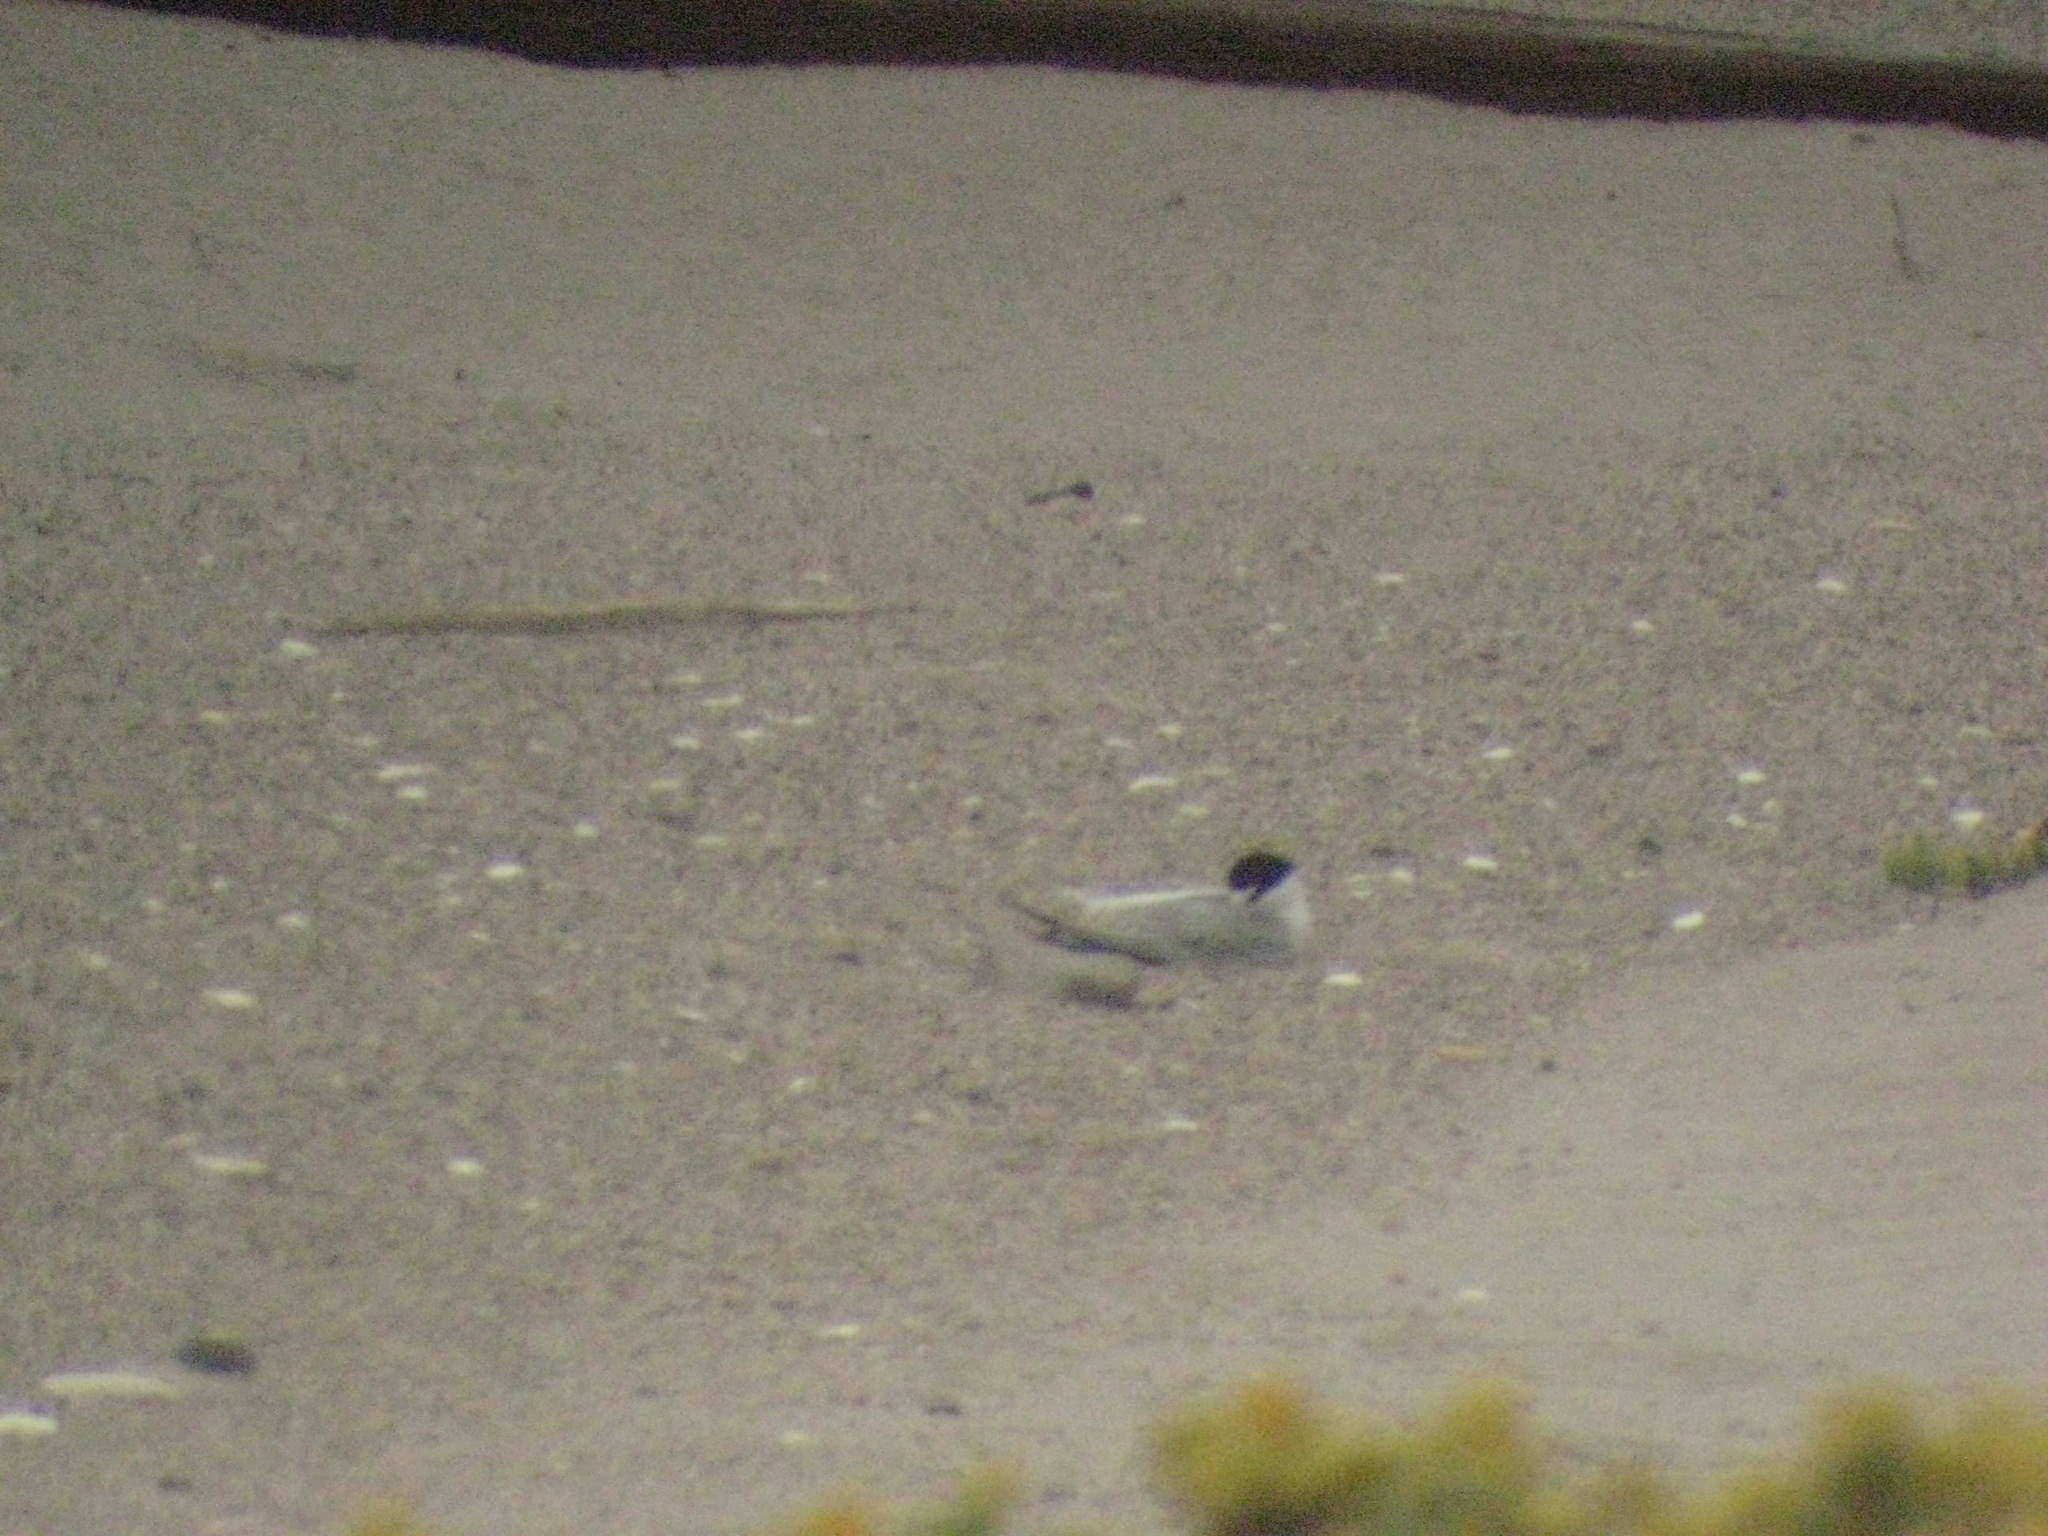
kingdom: Animalia
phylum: Chordata
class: Aves
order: Charadriiformes
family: Laridae
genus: Sternula
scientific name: Sternula antillarum
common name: Least tern
